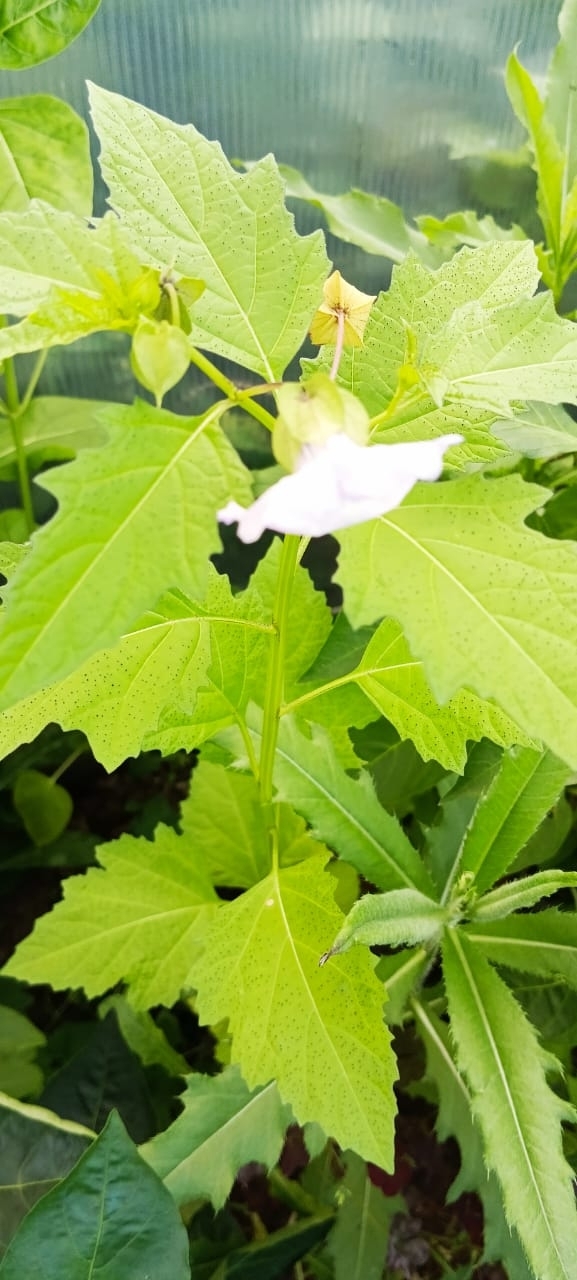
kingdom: Plantae
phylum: Tracheophyta
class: Magnoliopsida
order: Solanales
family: Solanaceae
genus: Nicandra
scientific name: Nicandra physalodes
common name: Apple-of-peru
